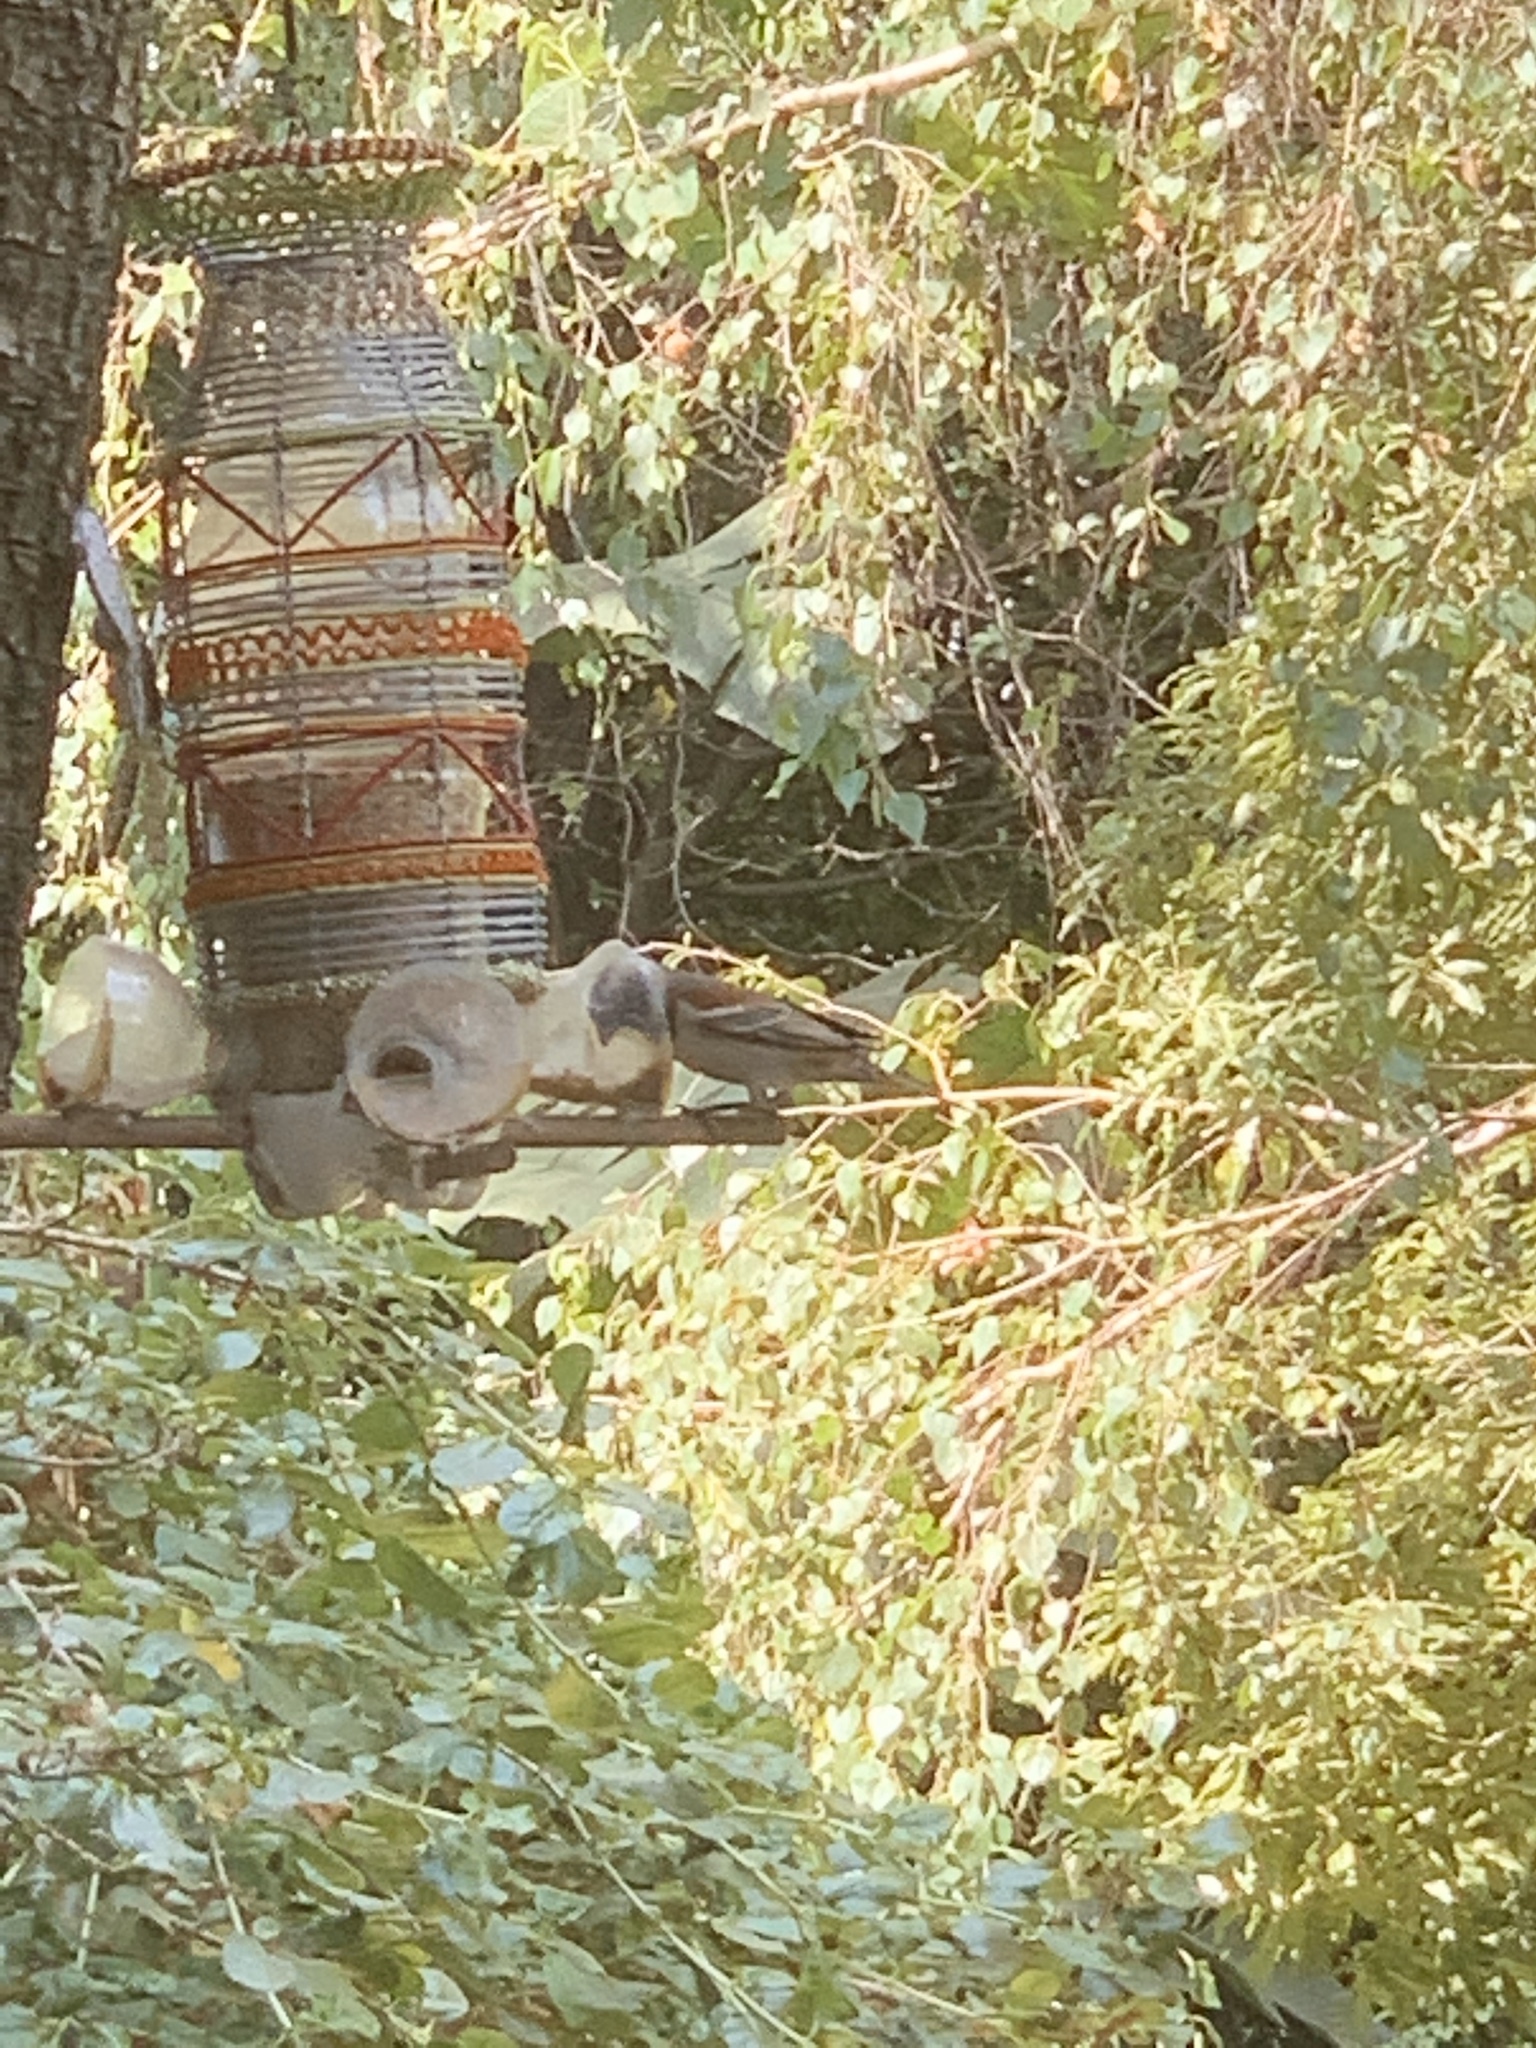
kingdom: Animalia
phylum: Chordata
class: Aves
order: Passeriformes
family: Passeridae
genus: Passer
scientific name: Passer melanurus
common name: Cape sparrow
